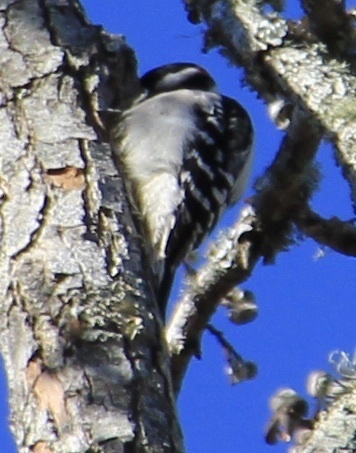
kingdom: Animalia
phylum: Chordata
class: Aves
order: Piciformes
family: Picidae
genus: Dryobates
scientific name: Dryobates pubescens
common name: Downy woodpecker
